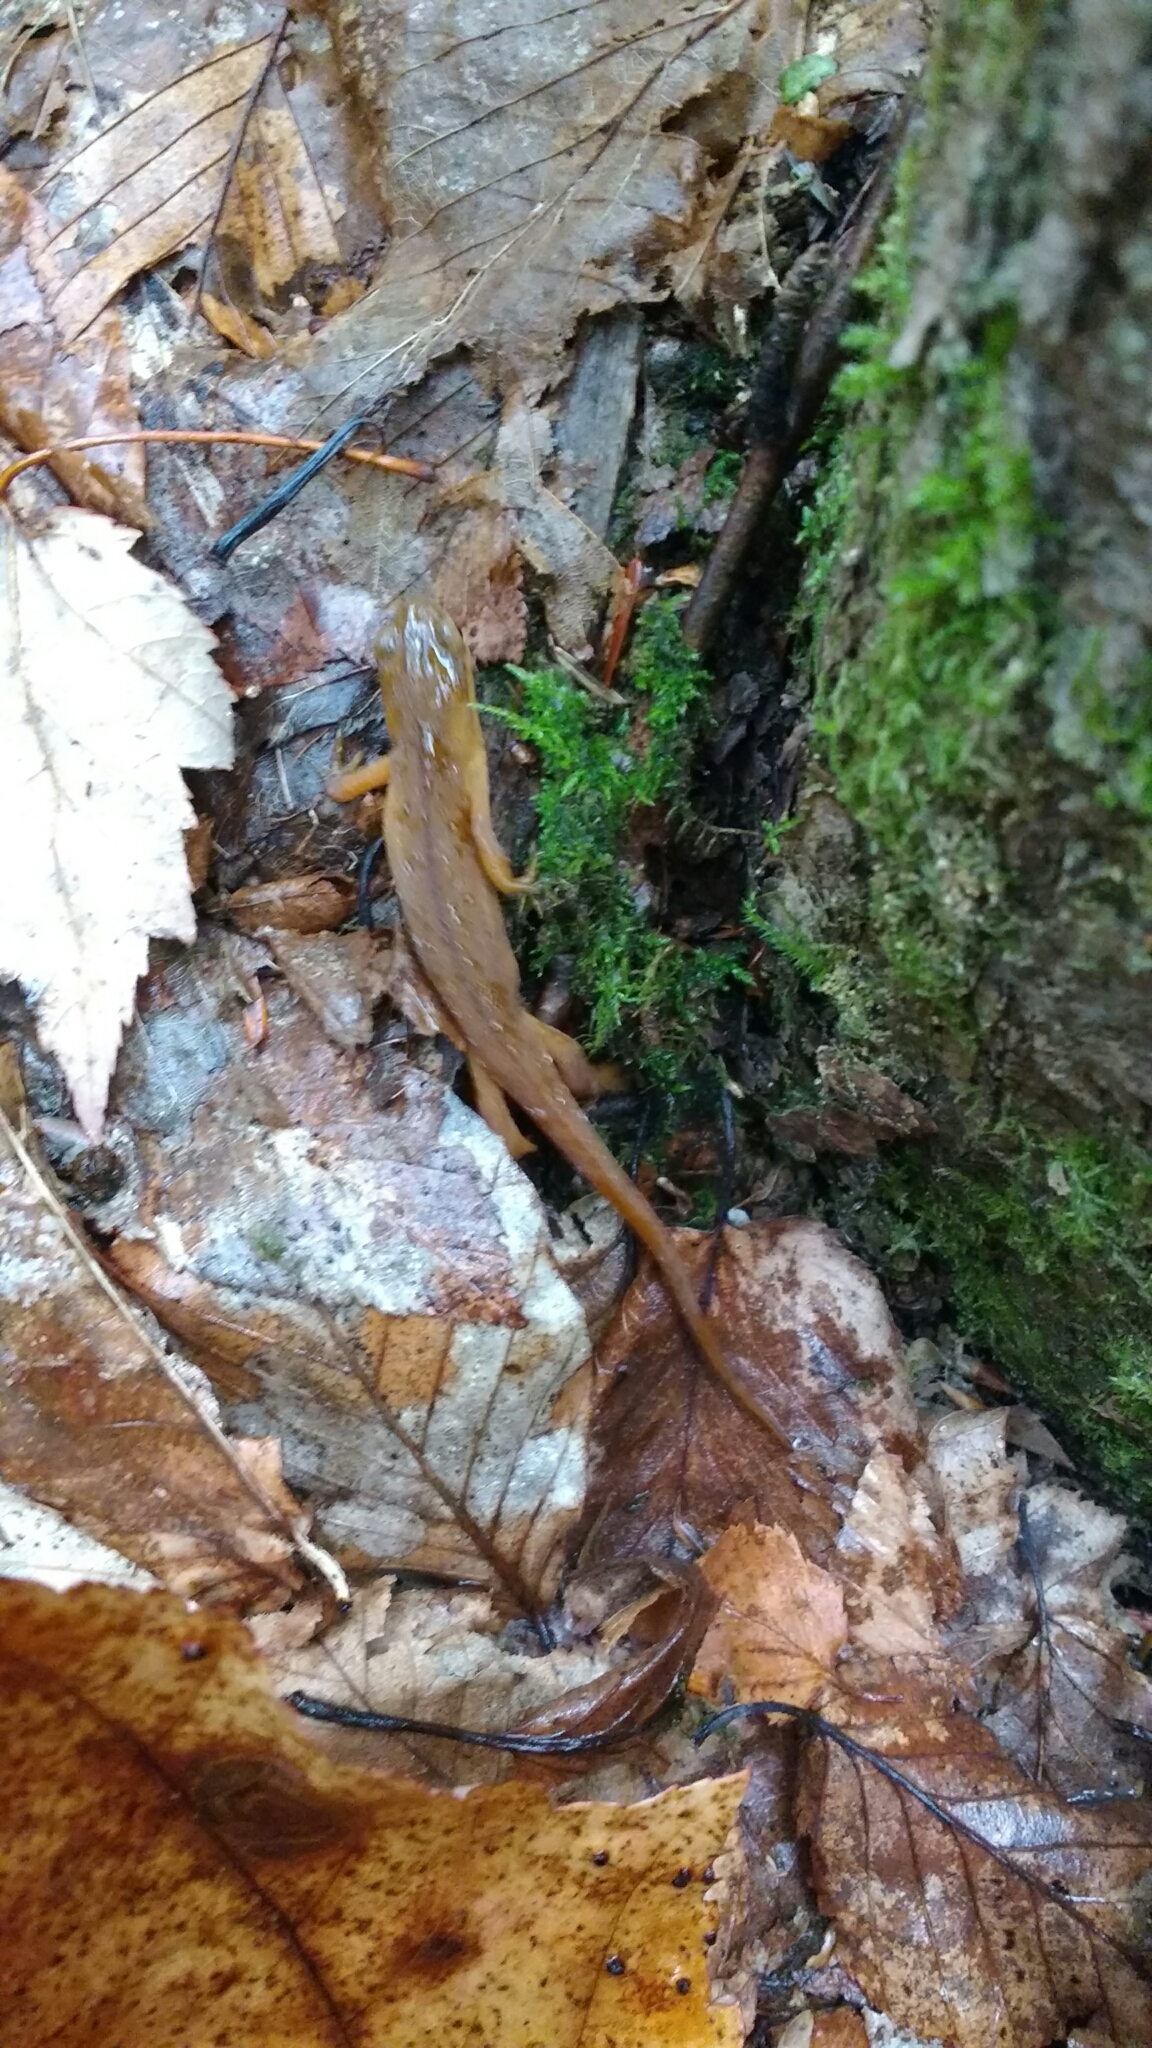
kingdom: Animalia
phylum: Chordata
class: Amphibia
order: Caudata
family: Salamandridae
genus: Notophthalmus
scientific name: Notophthalmus viridescens
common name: Eastern newt
